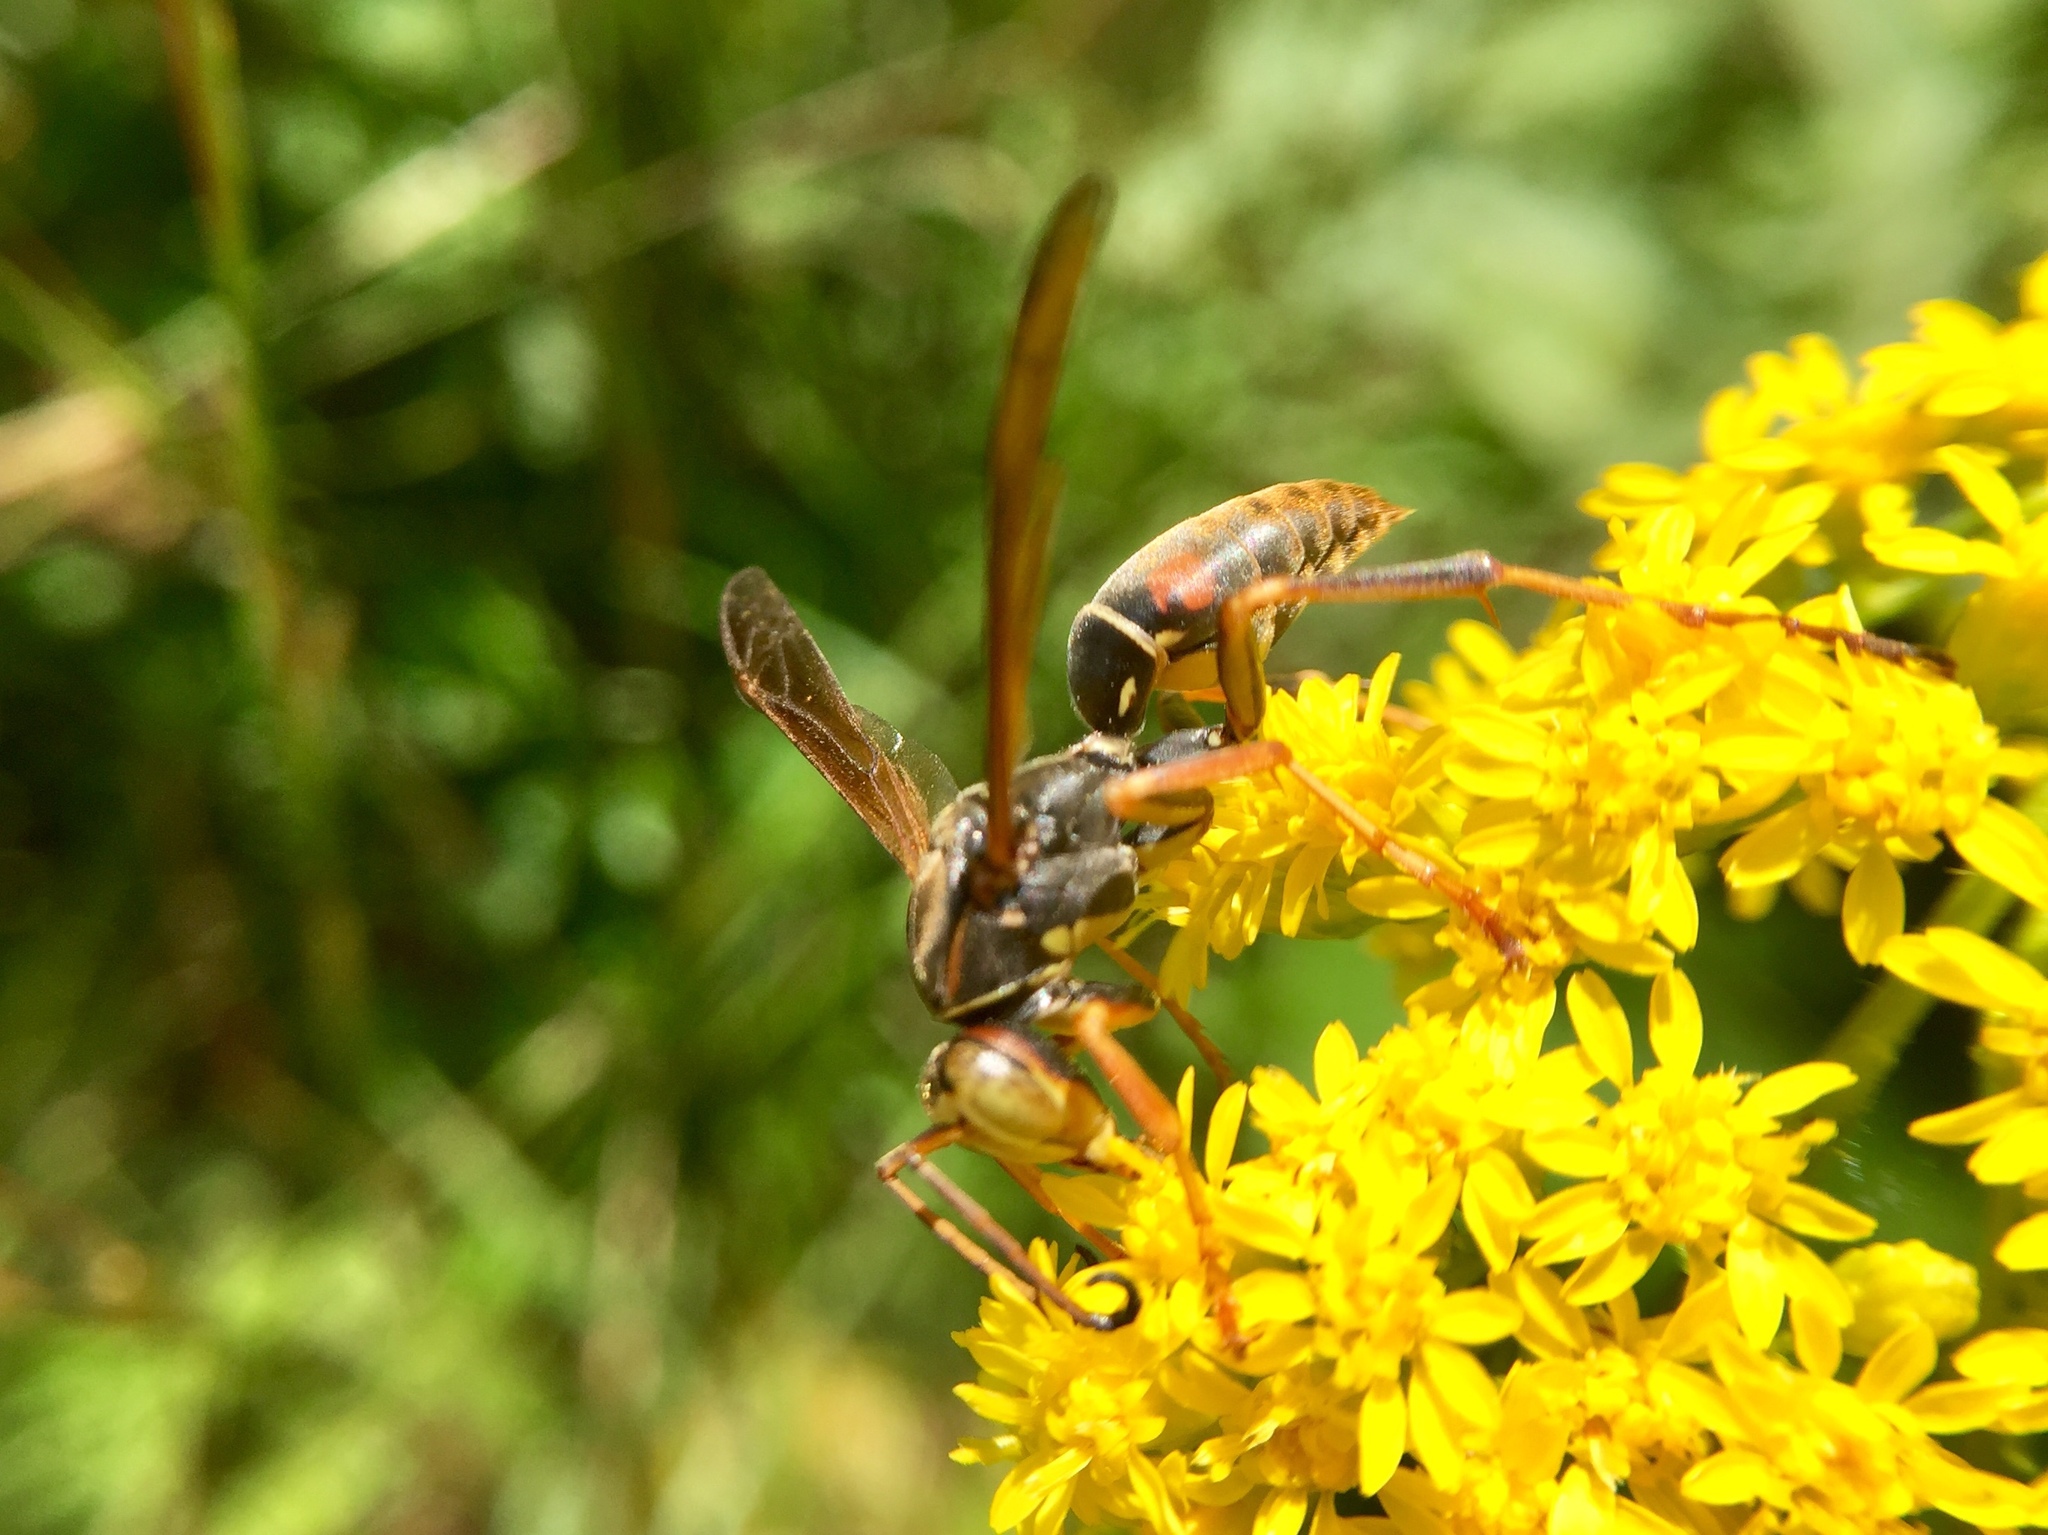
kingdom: Animalia
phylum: Arthropoda
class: Insecta
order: Hymenoptera
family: Eumenidae
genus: Polistes
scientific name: Polistes fuscatus
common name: Dark paper wasp
